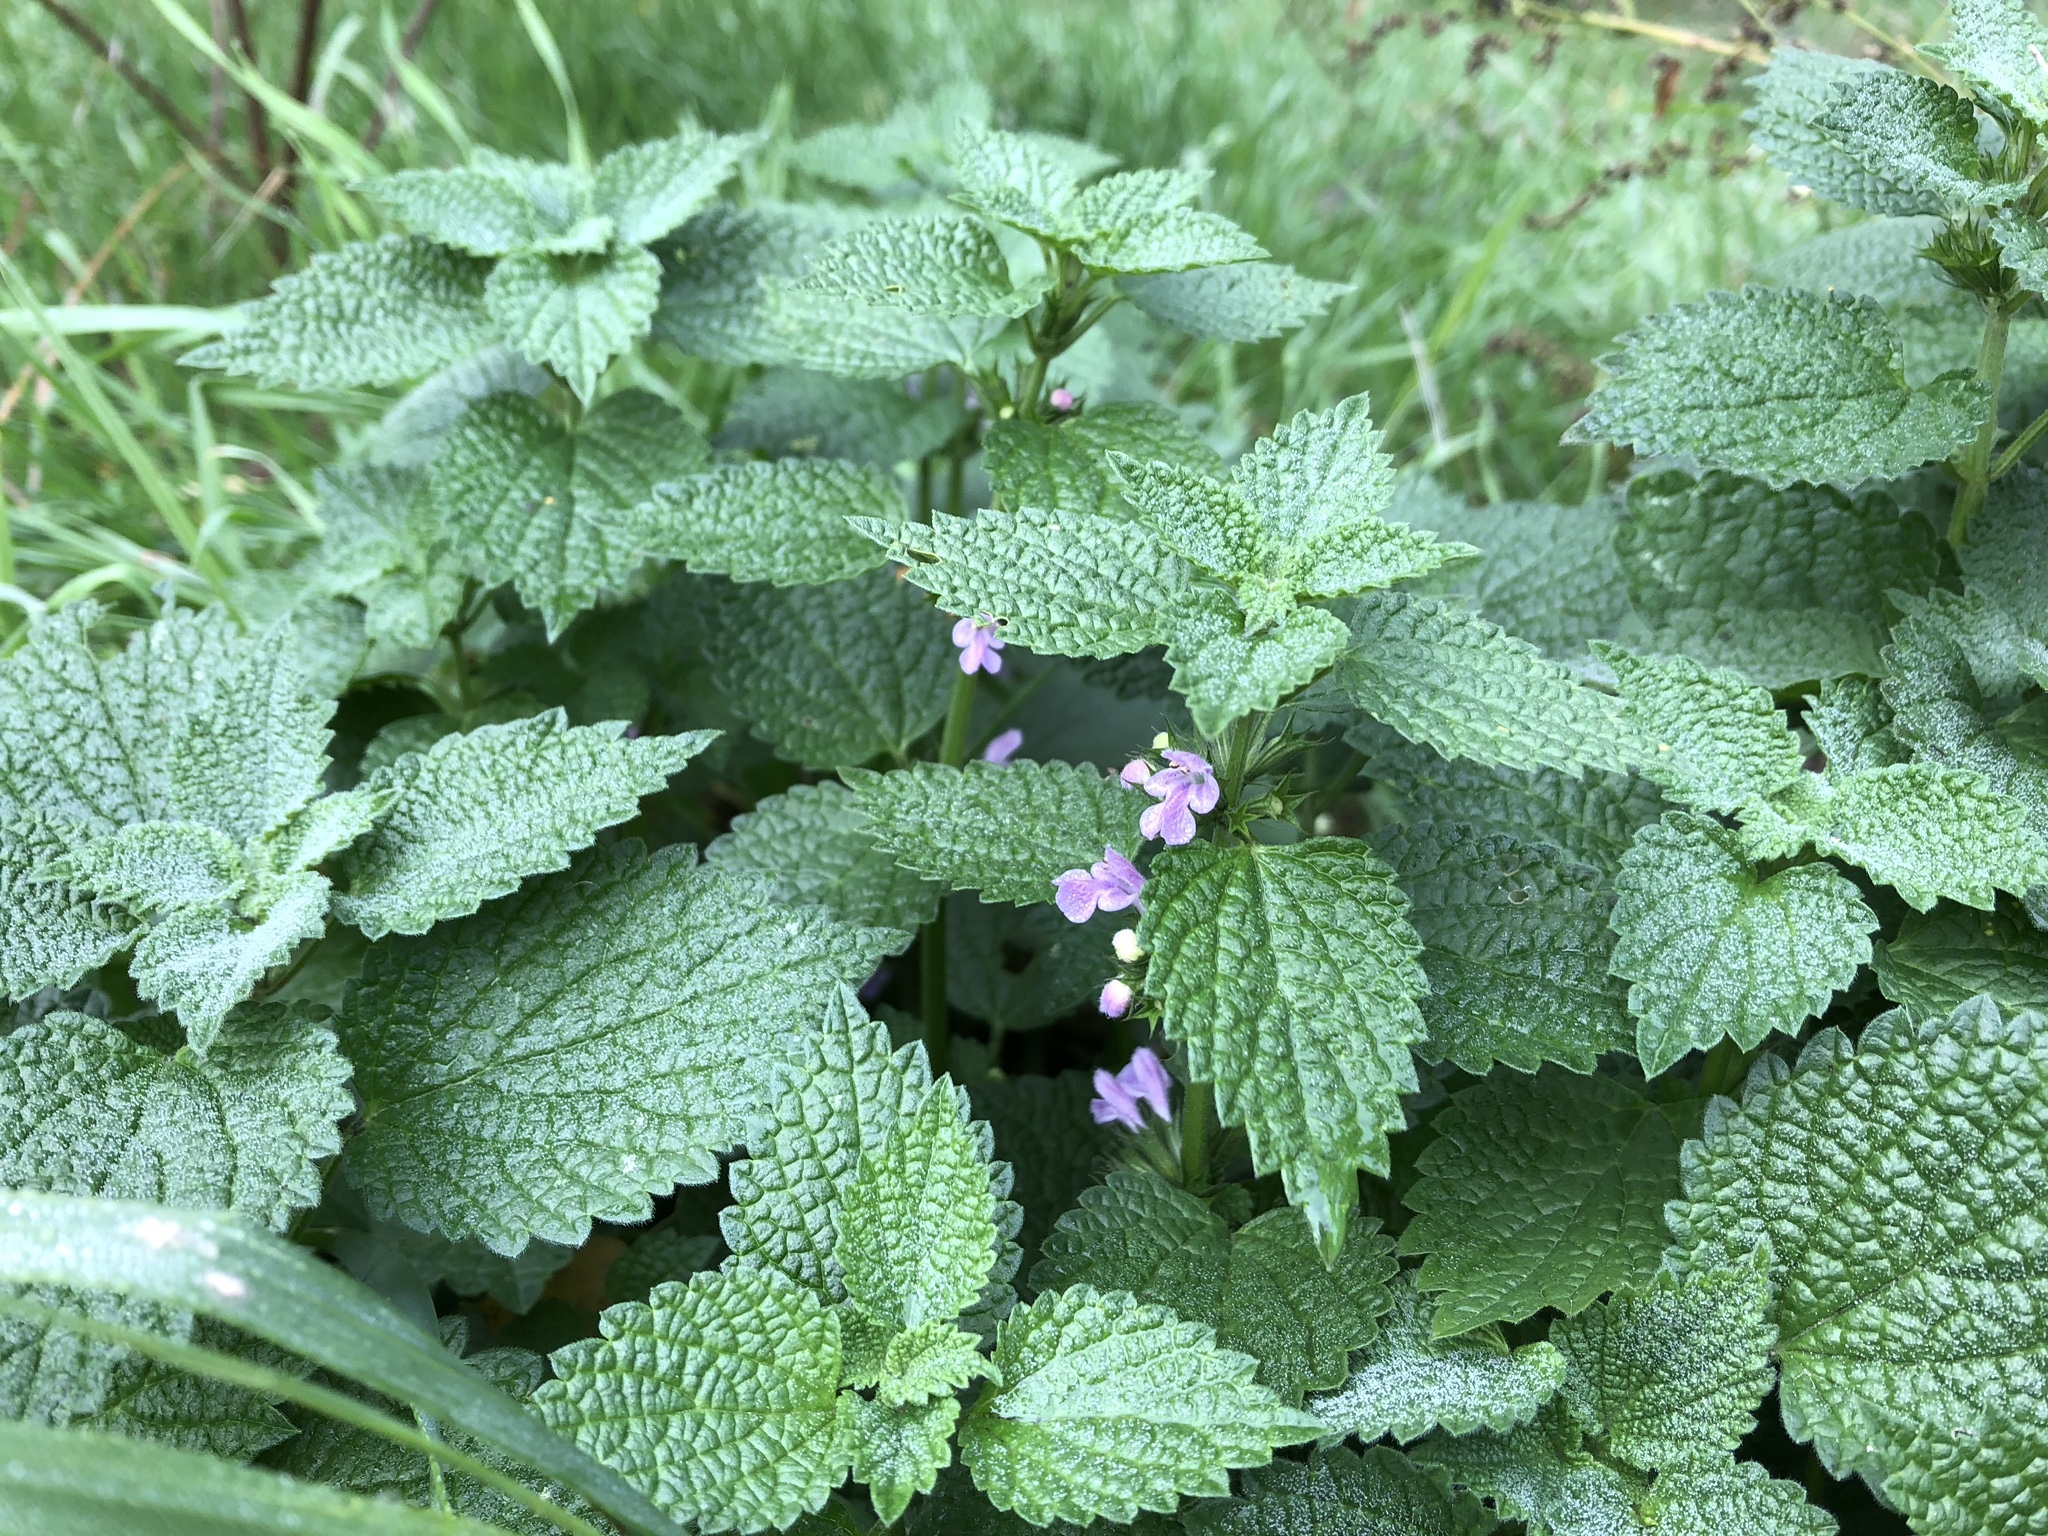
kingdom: Plantae
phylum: Tracheophyta
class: Magnoliopsida
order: Lamiales
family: Lamiaceae
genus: Ballota
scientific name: Ballota nigra
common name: Black horehound
